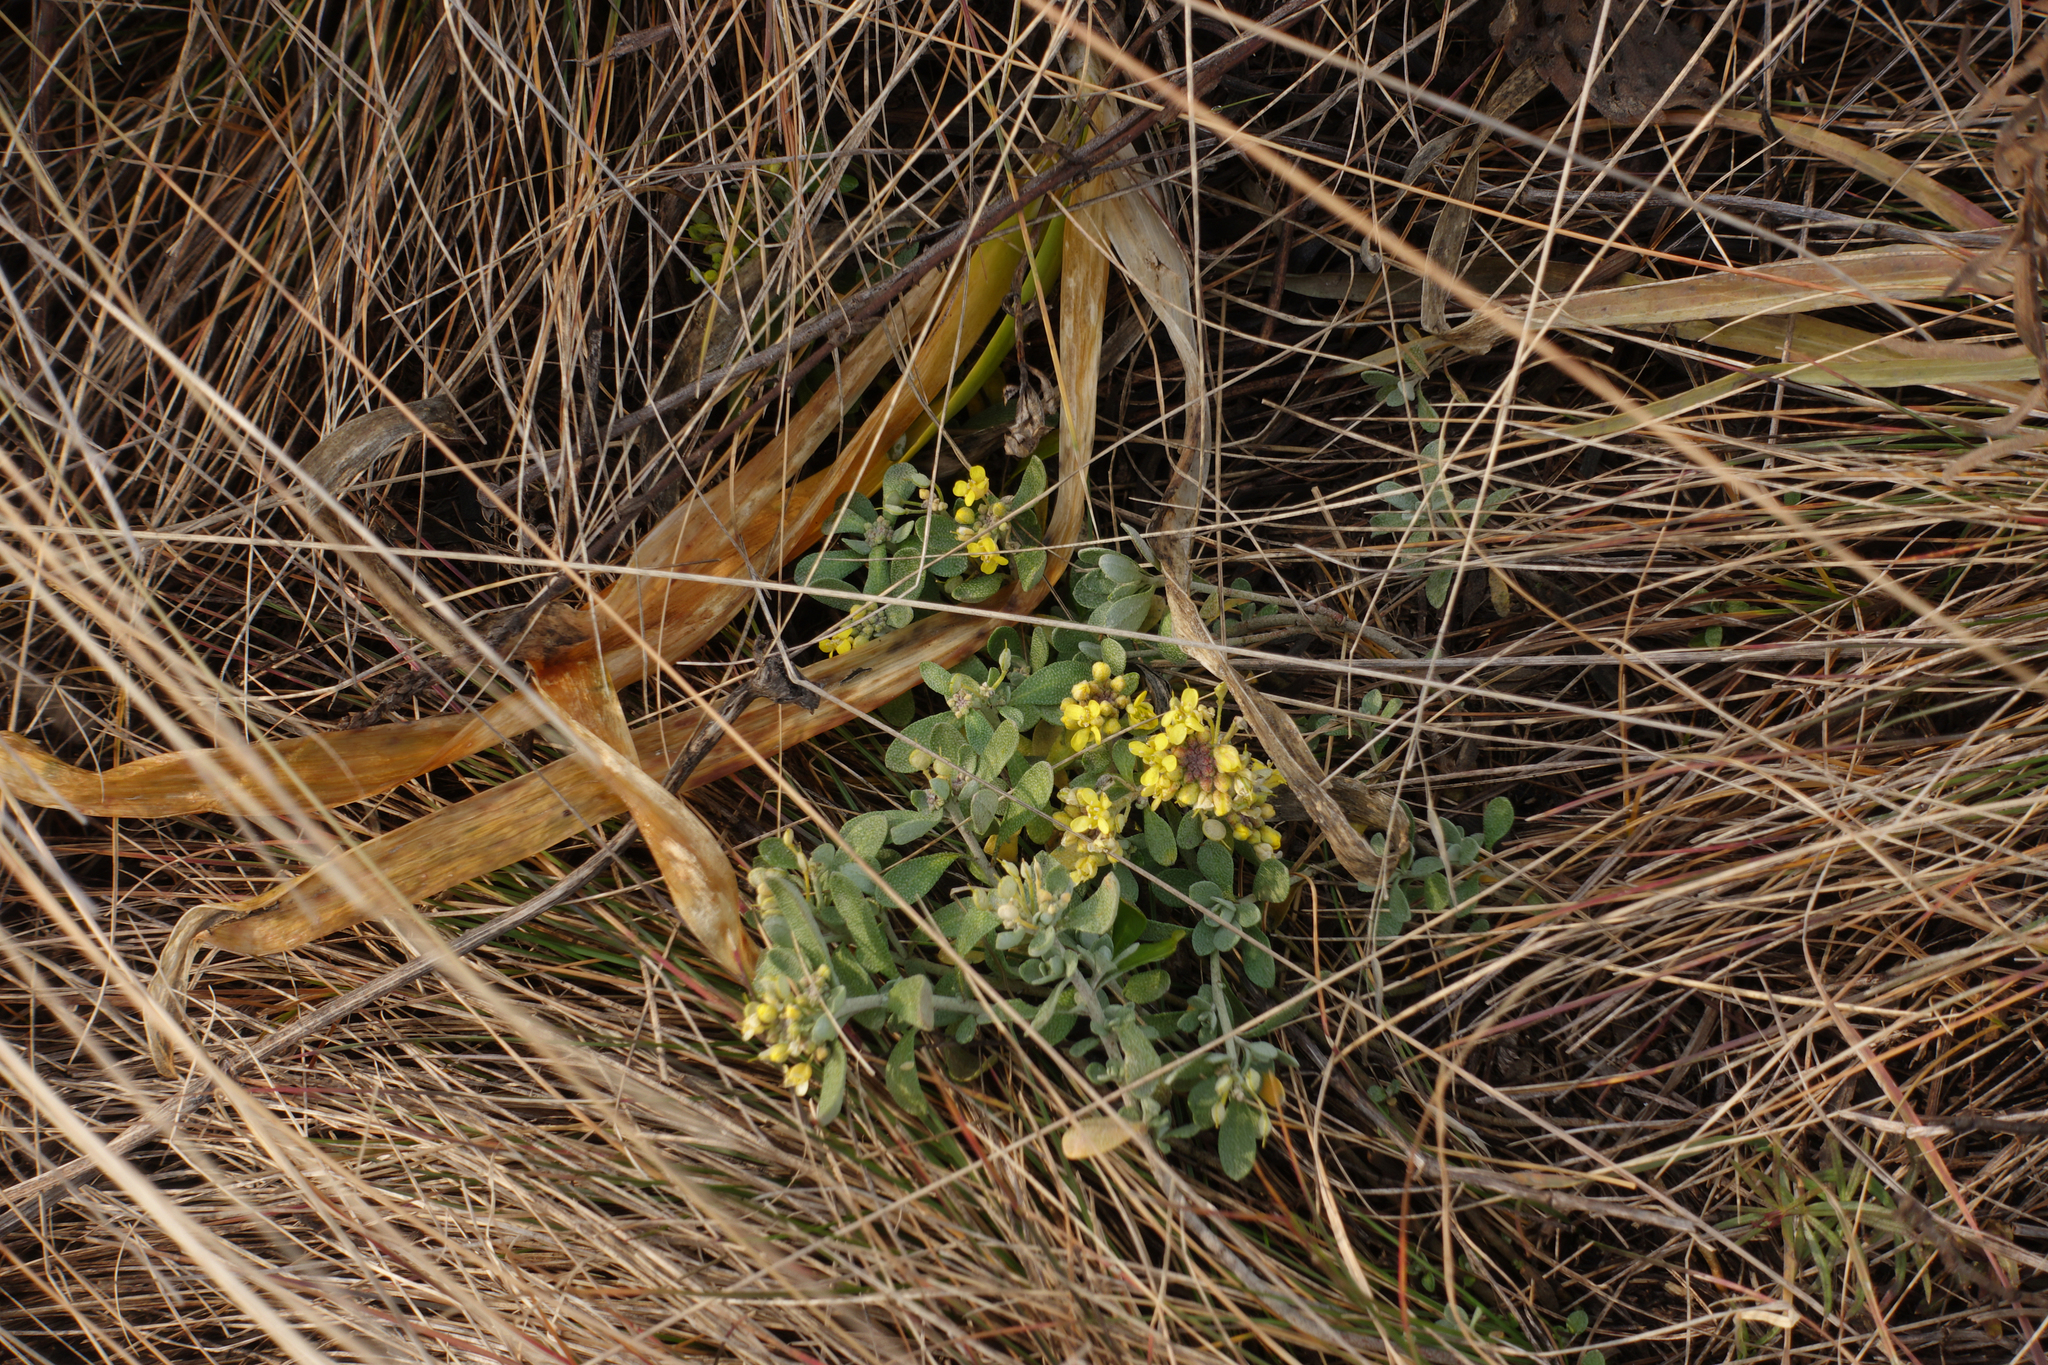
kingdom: Plantae
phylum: Tracheophyta
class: Magnoliopsida
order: Brassicales
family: Brassicaceae
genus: Odontarrhena
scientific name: Odontarrhena obovata
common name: American alyssum
